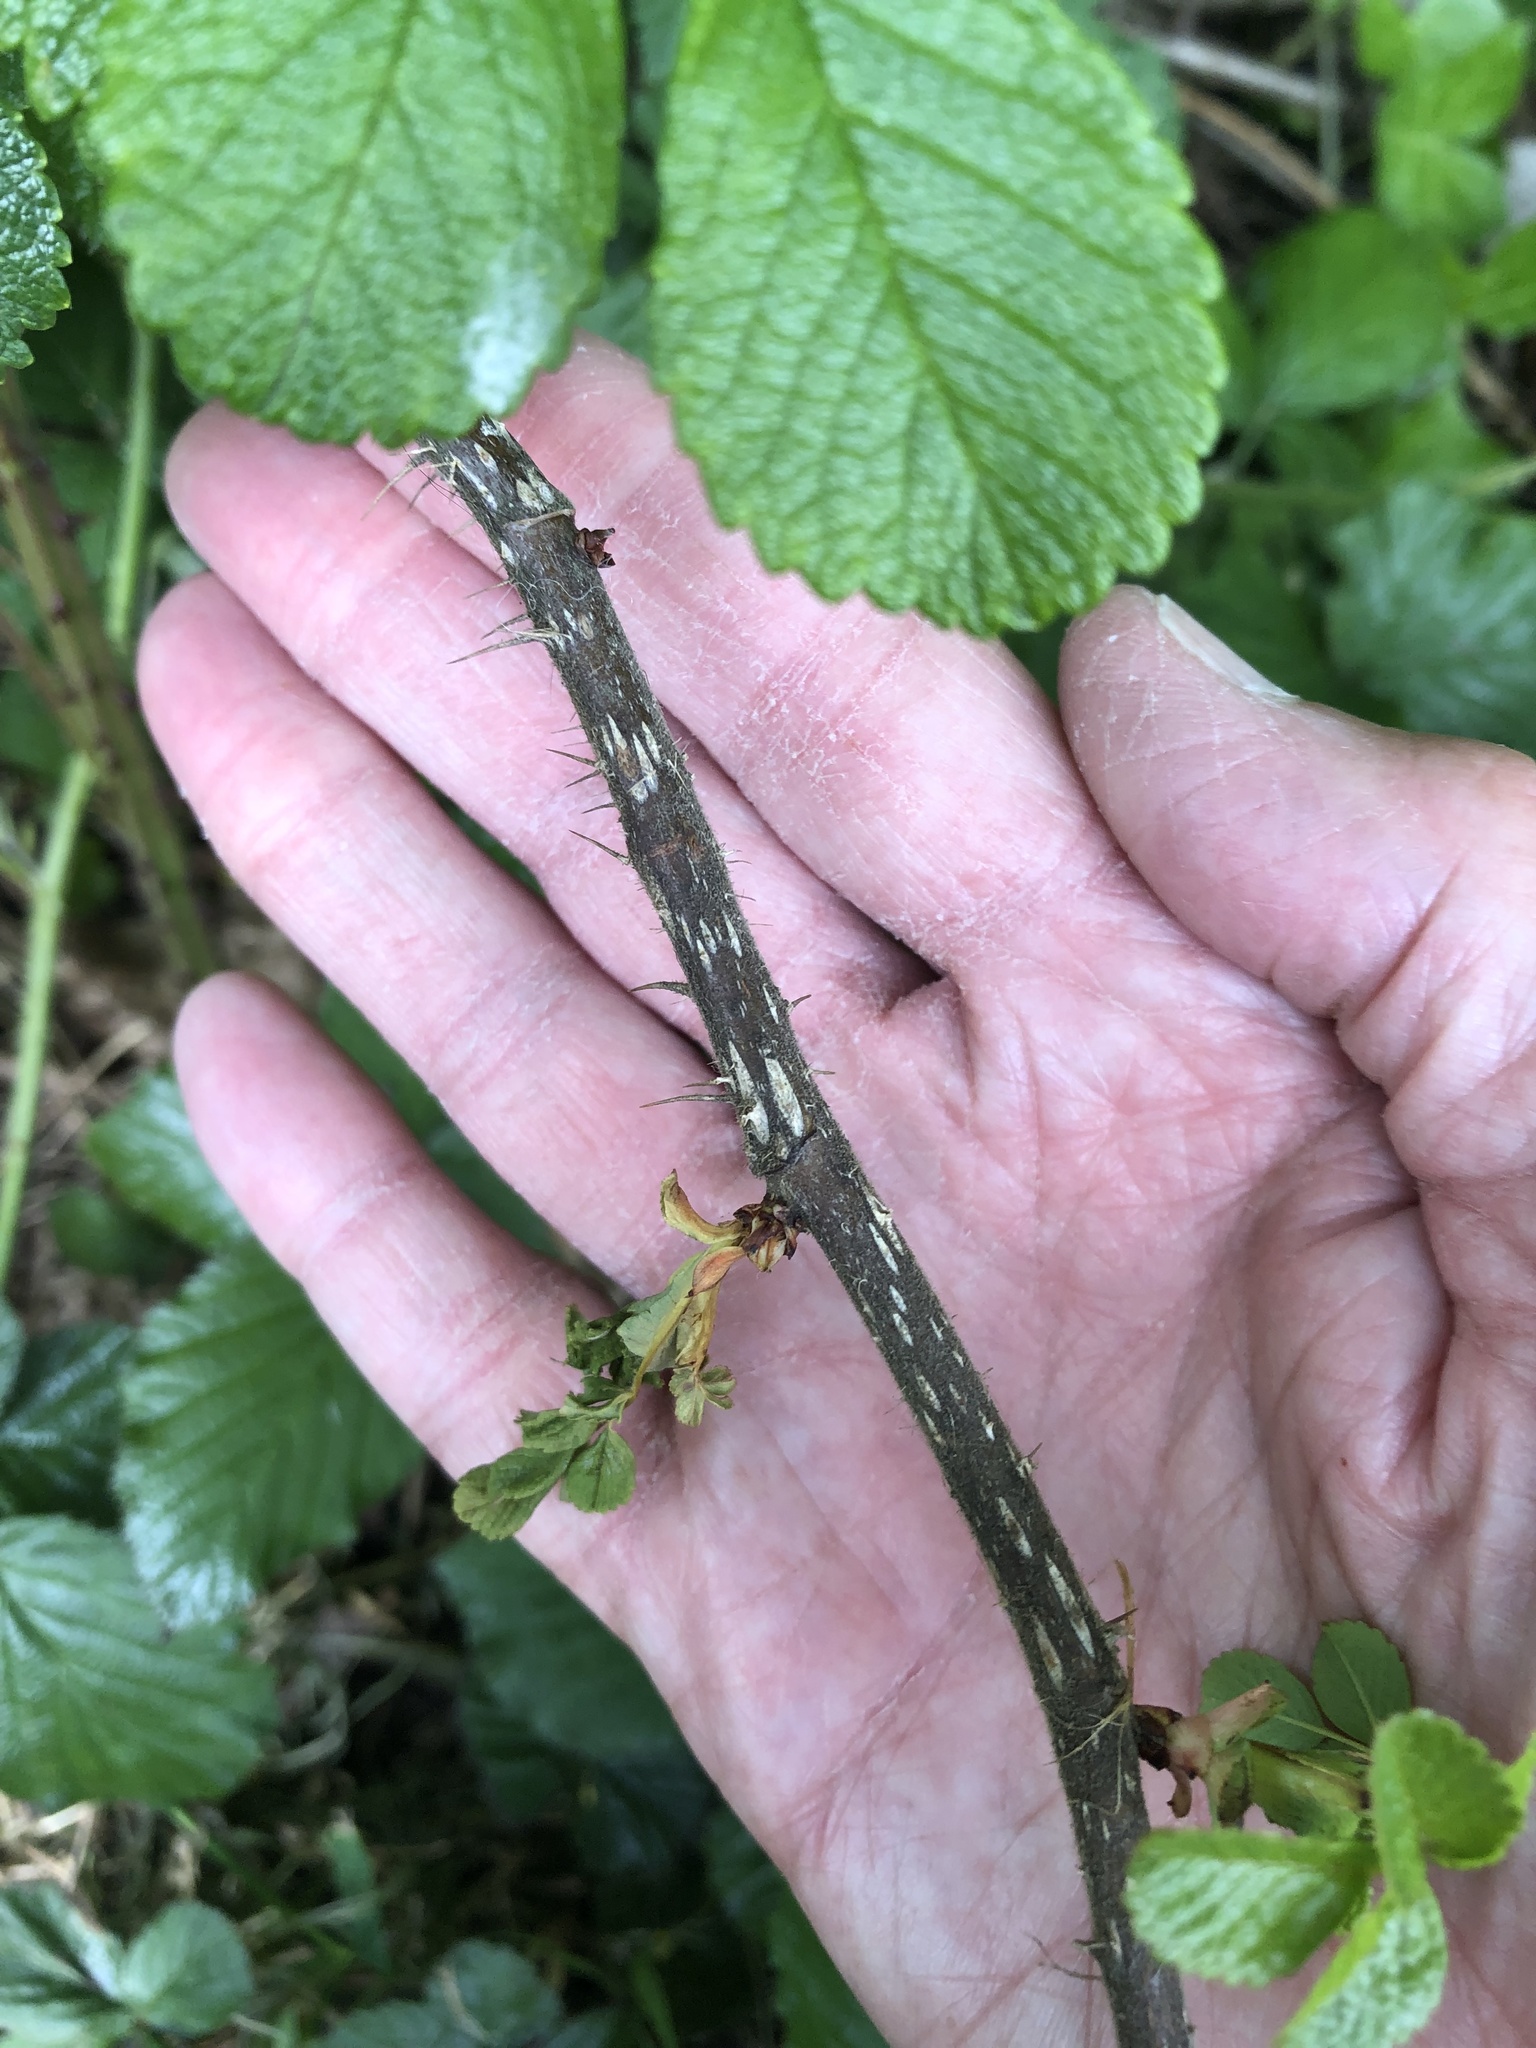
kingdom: Plantae
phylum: Tracheophyta
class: Magnoliopsida
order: Rosales
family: Rosaceae
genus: Rosa
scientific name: Rosa rugosa
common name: Japanese rose
